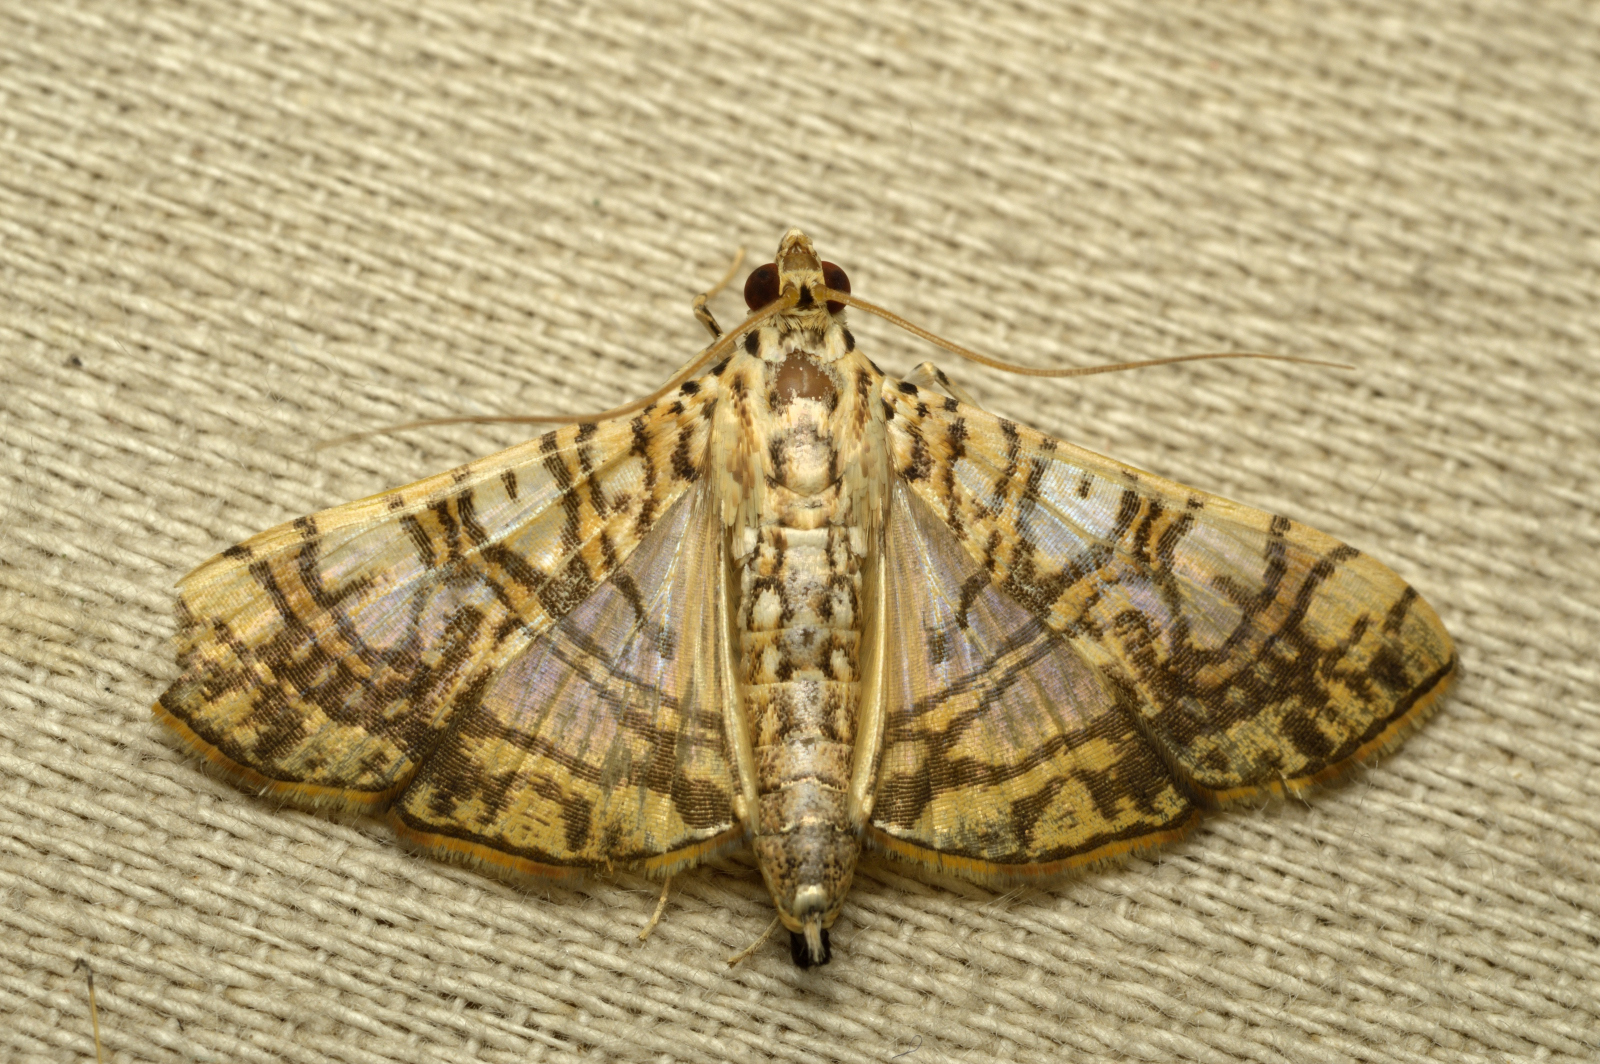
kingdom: Animalia
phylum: Arthropoda
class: Insecta
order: Lepidoptera
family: Crambidae
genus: Glyphodes
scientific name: Glyphodes caesalis
